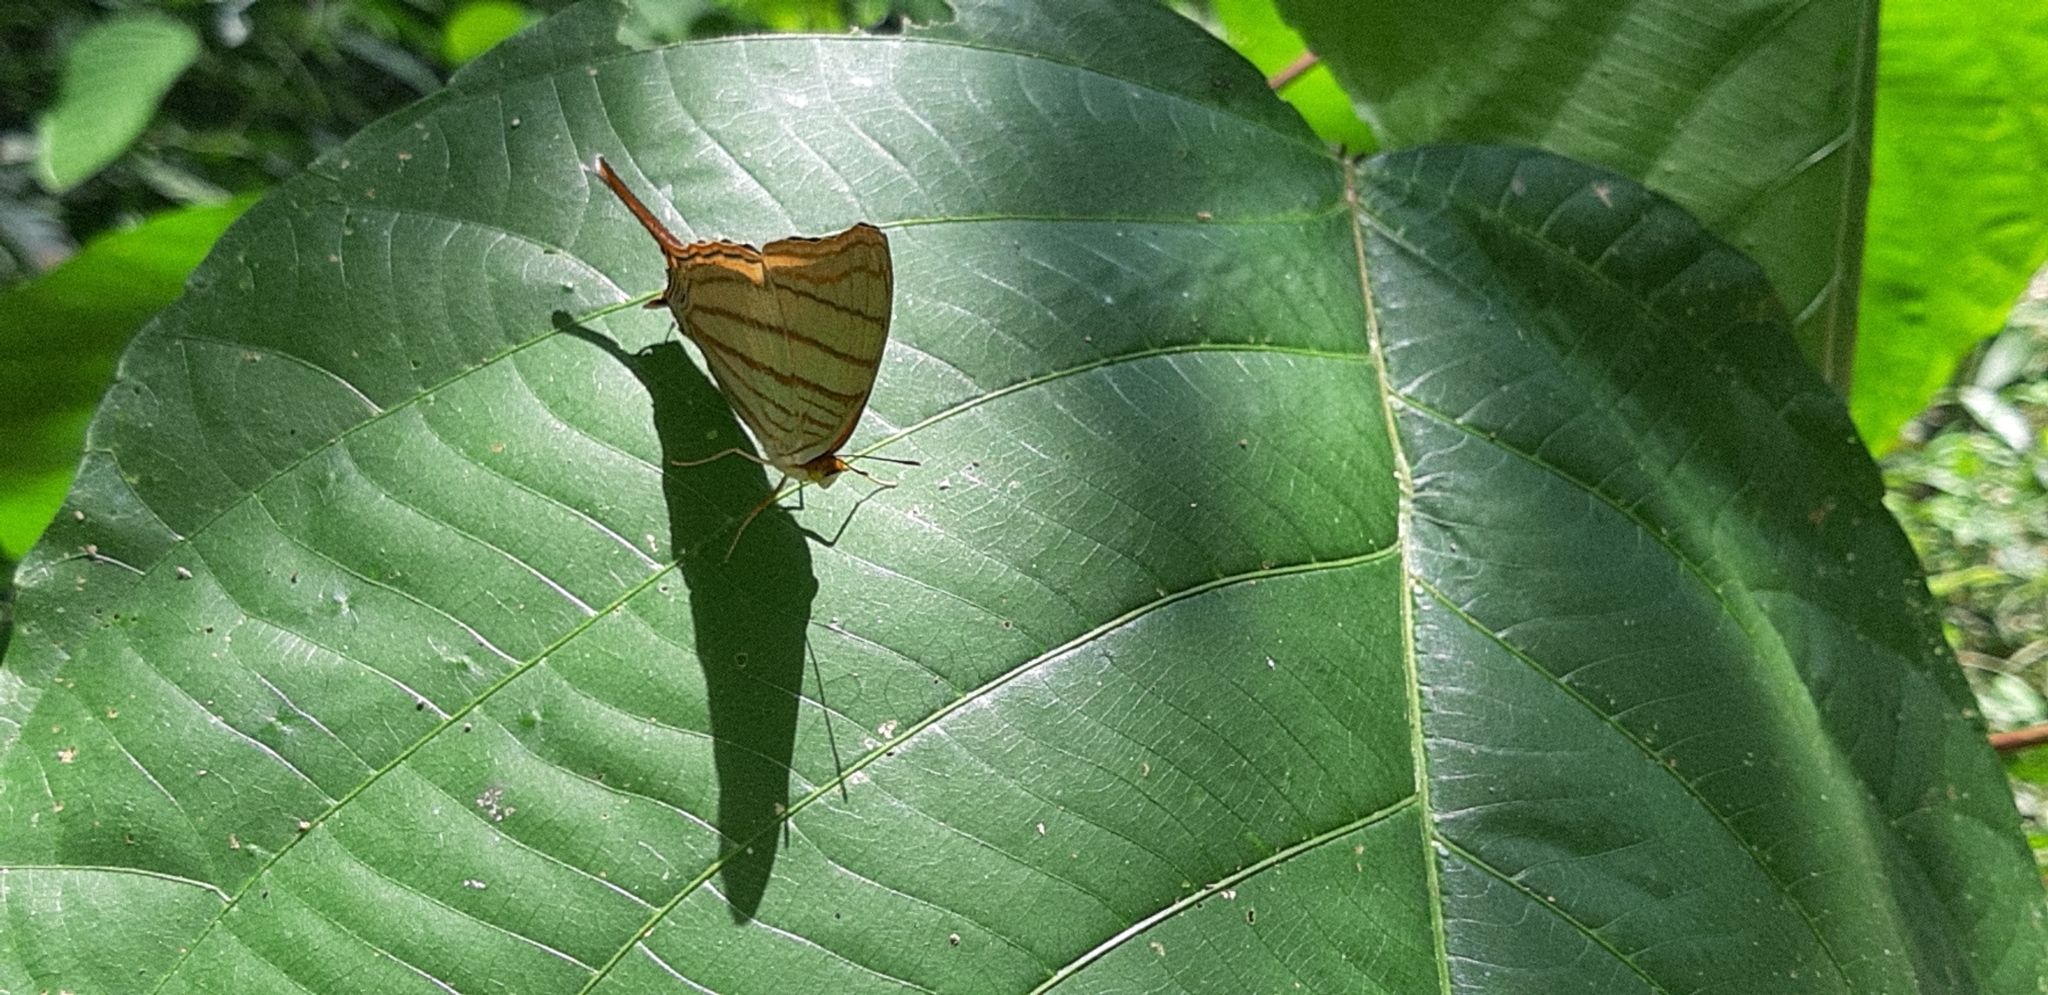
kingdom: Animalia
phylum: Arthropoda
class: Insecta
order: Lepidoptera
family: Nymphalidae
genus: Marpesia
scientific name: Marpesia berania
